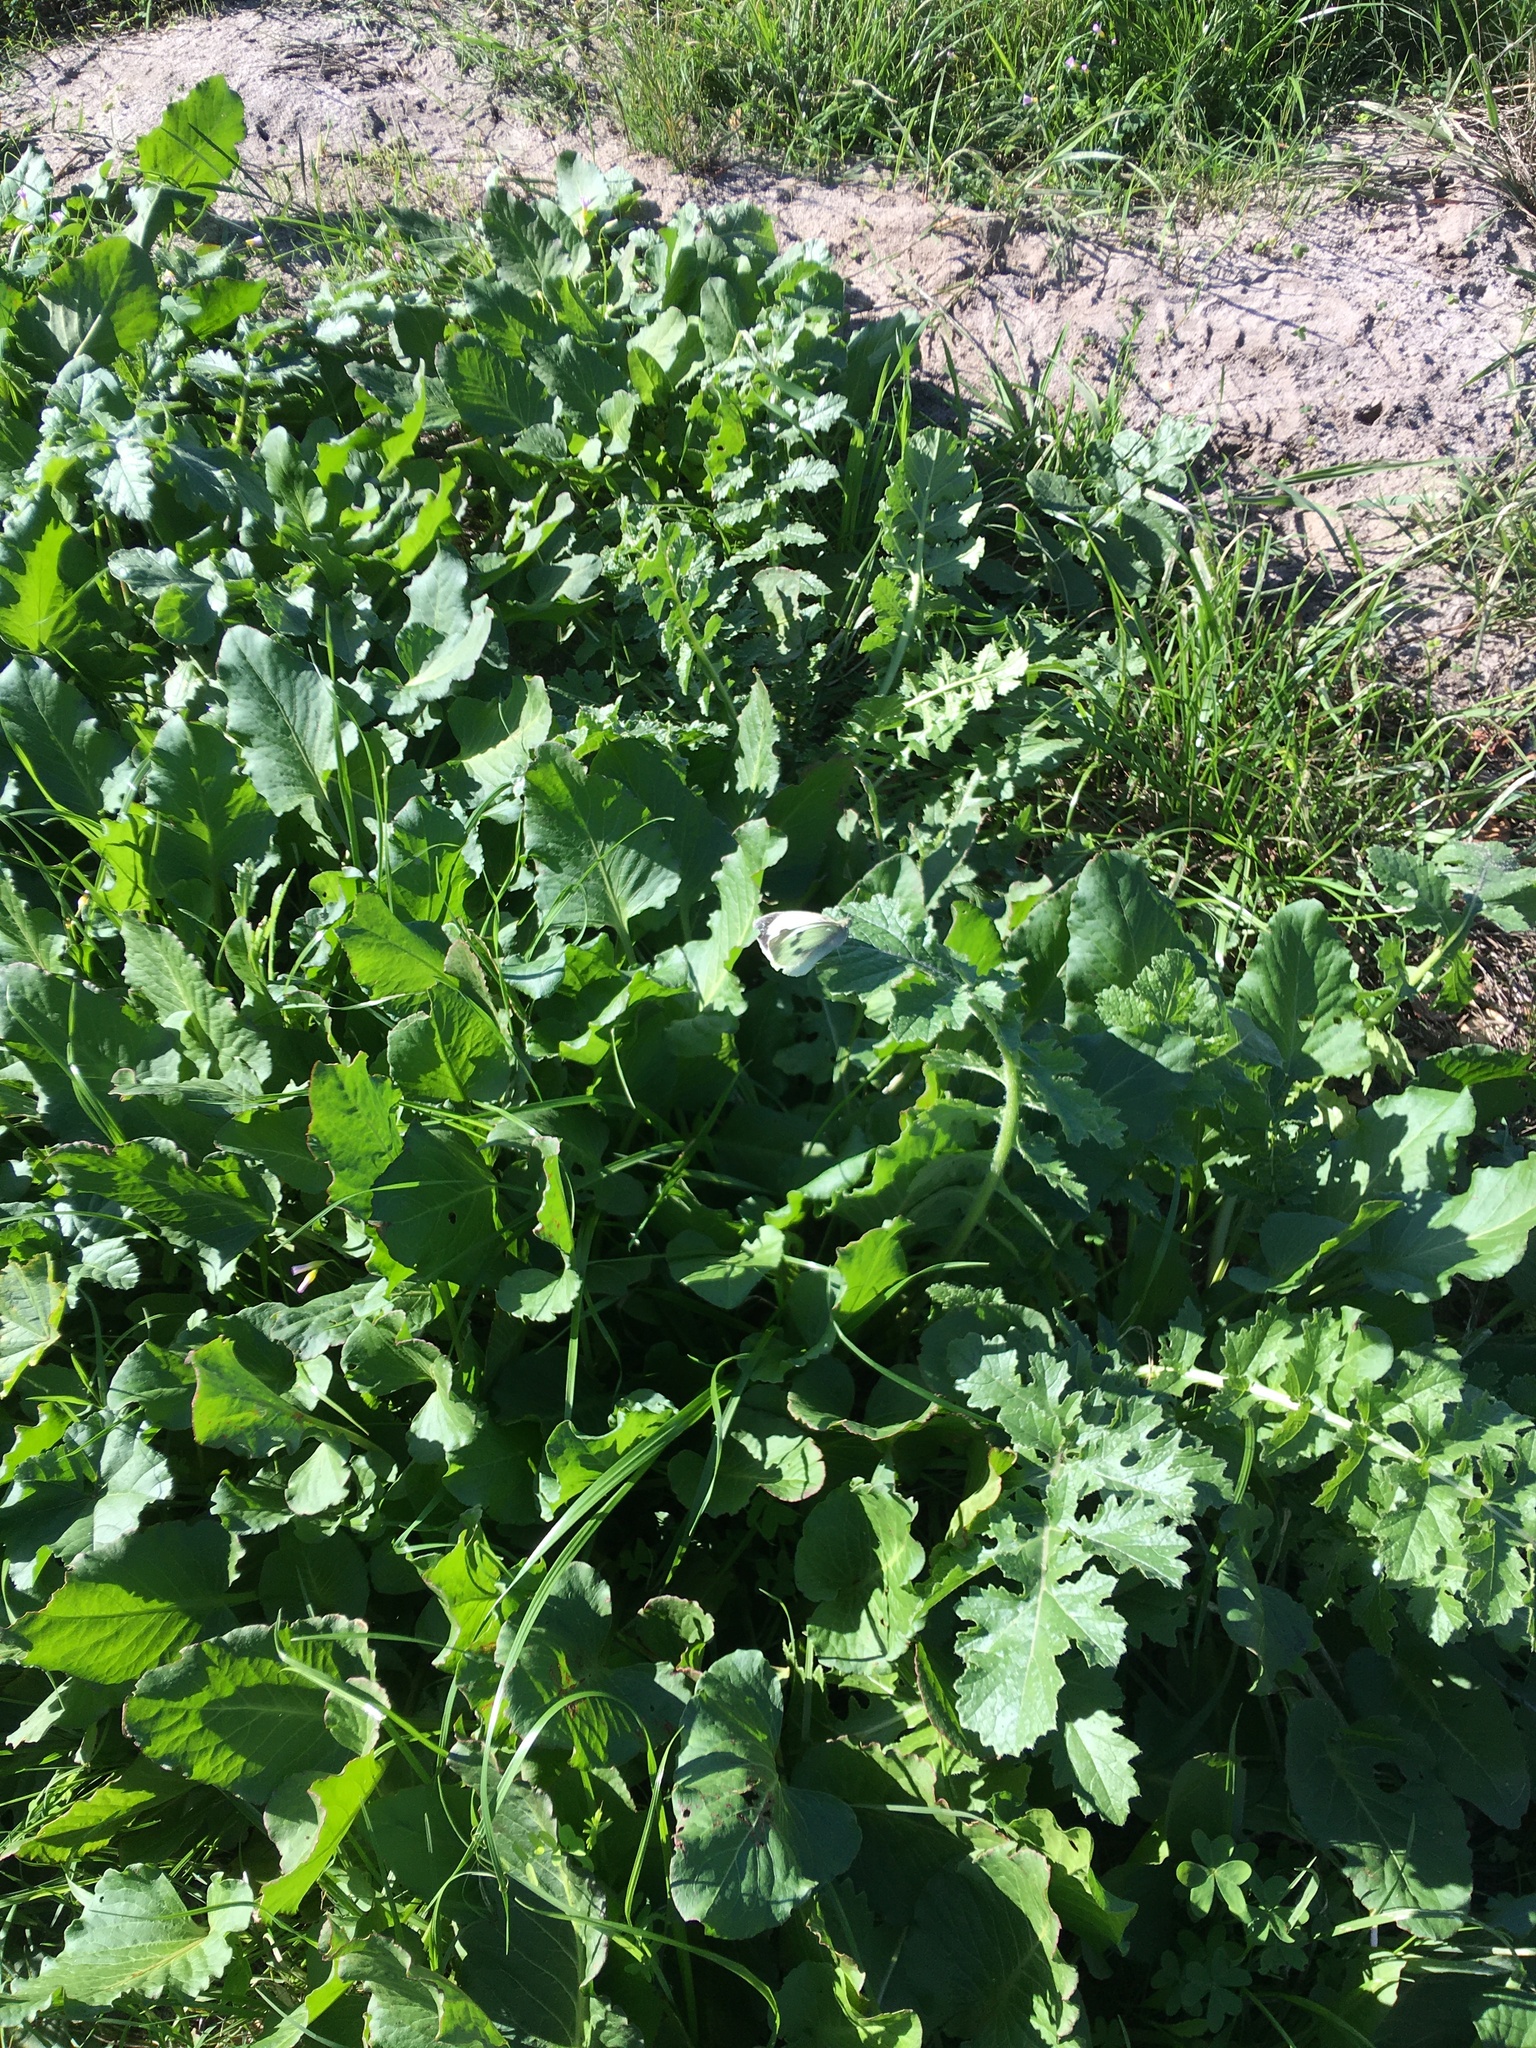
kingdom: Animalia
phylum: Arthropoda
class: Insecta
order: Lepidoptera
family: Pieridae
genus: Pieris
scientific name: Pieris brassicae
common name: Large white
